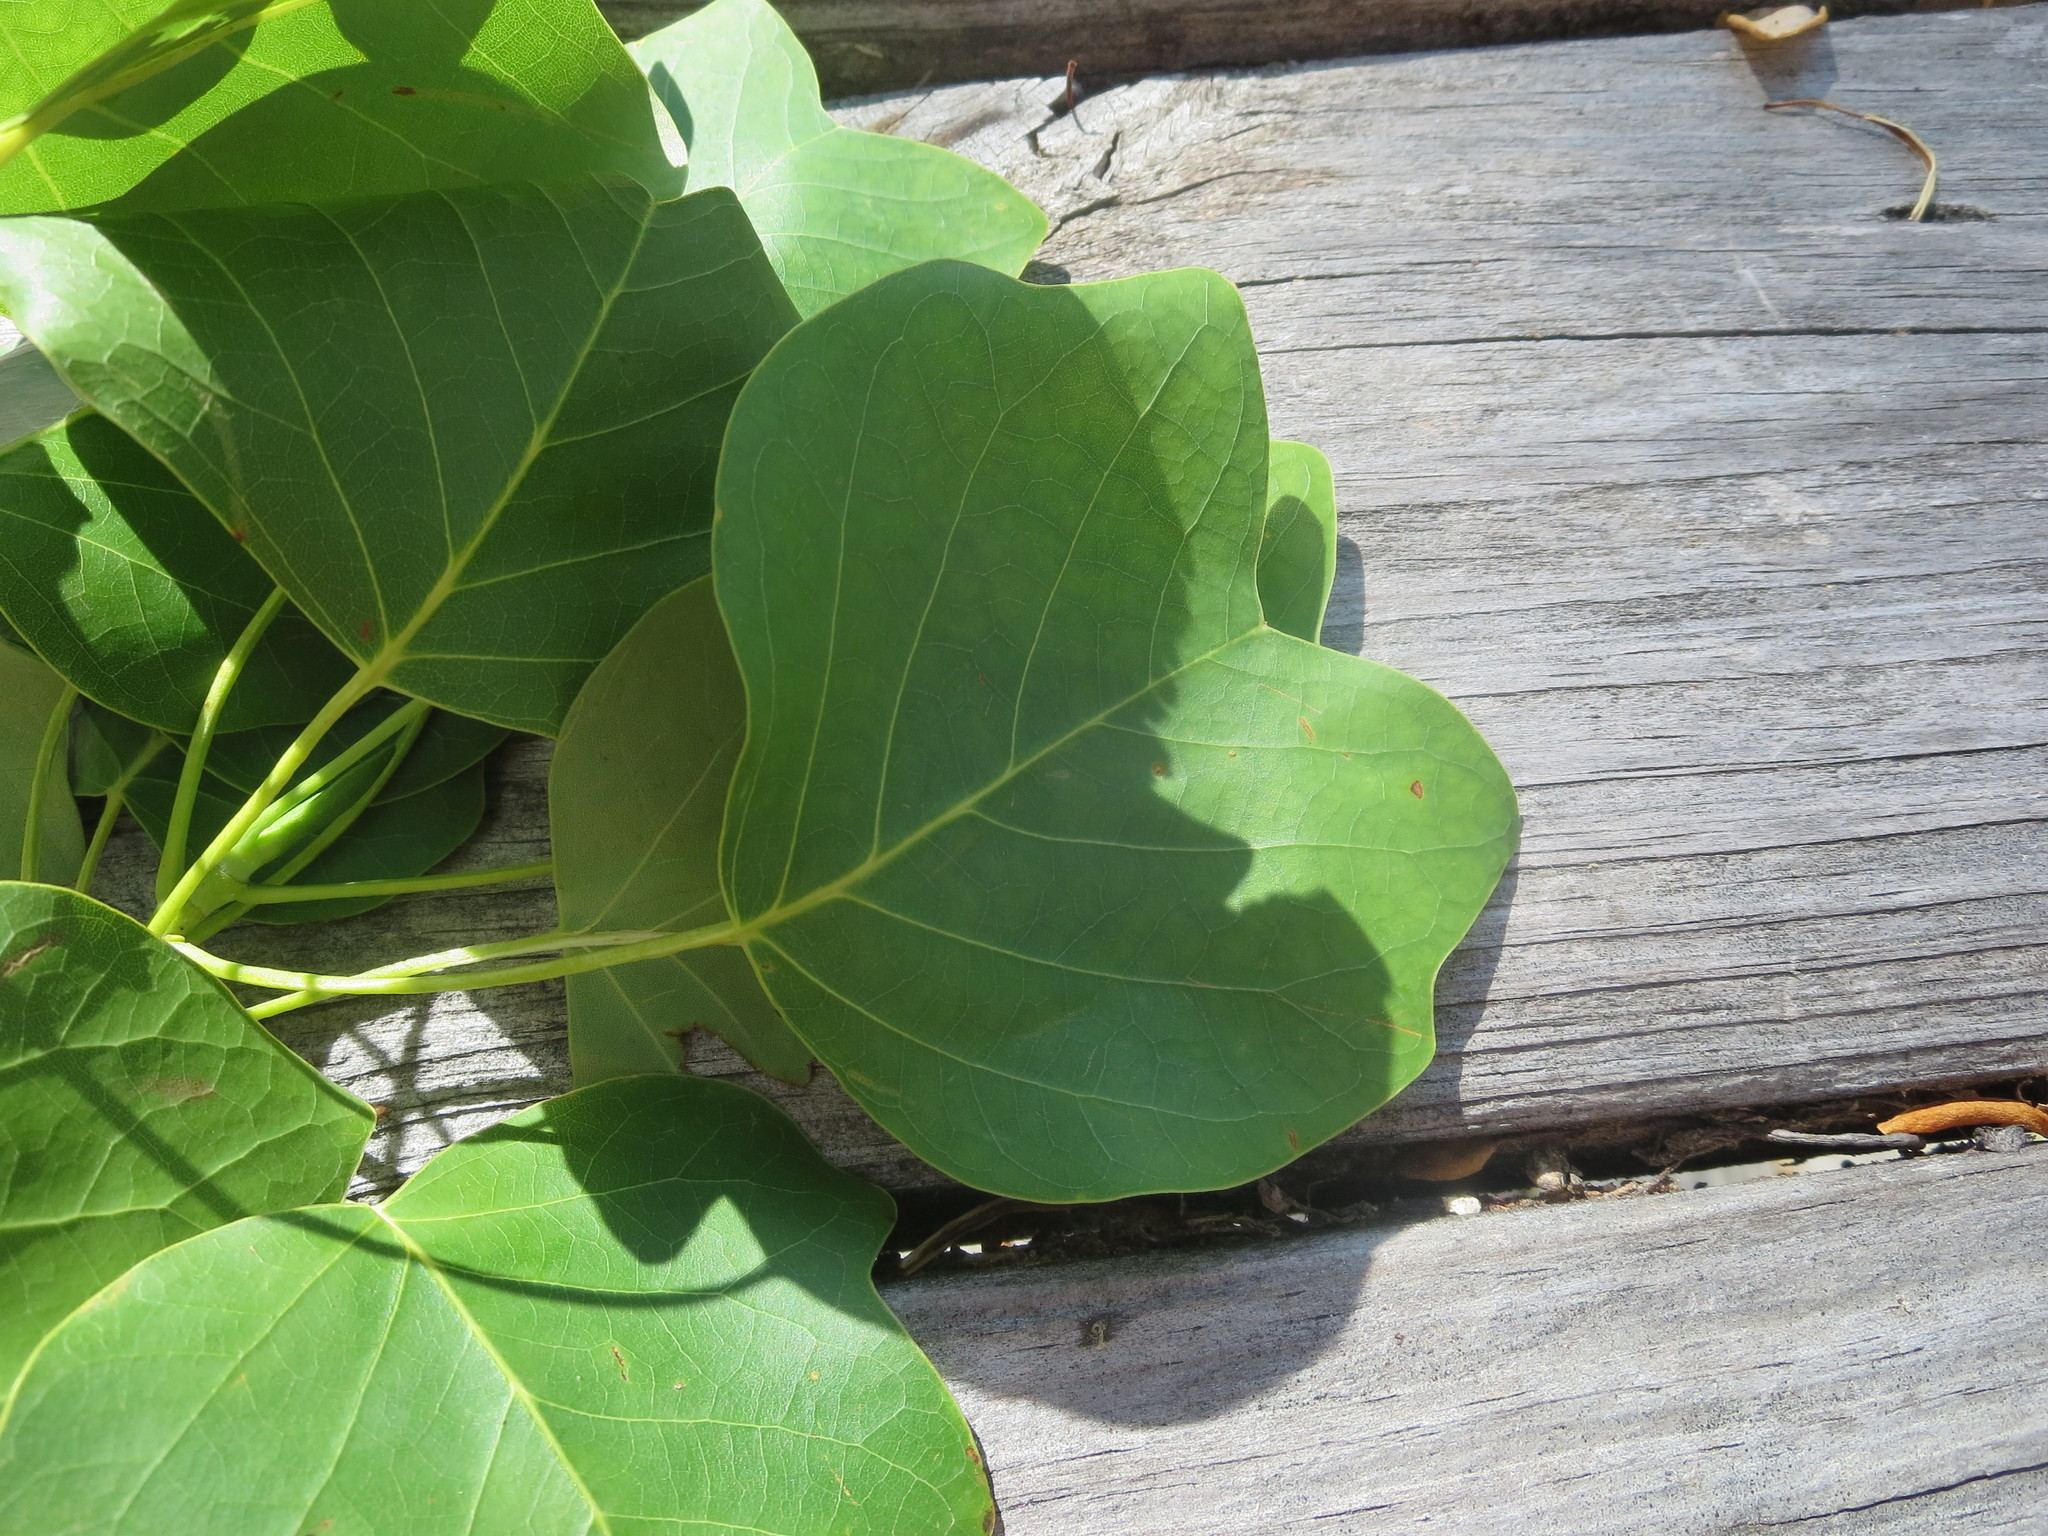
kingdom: Plantae
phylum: Tracheophyta
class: Magnoliopsida
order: Magnoliales
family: Magnoliaceae
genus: Liriodendron
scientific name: Liriodendron tulipifera
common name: Tulip tree
